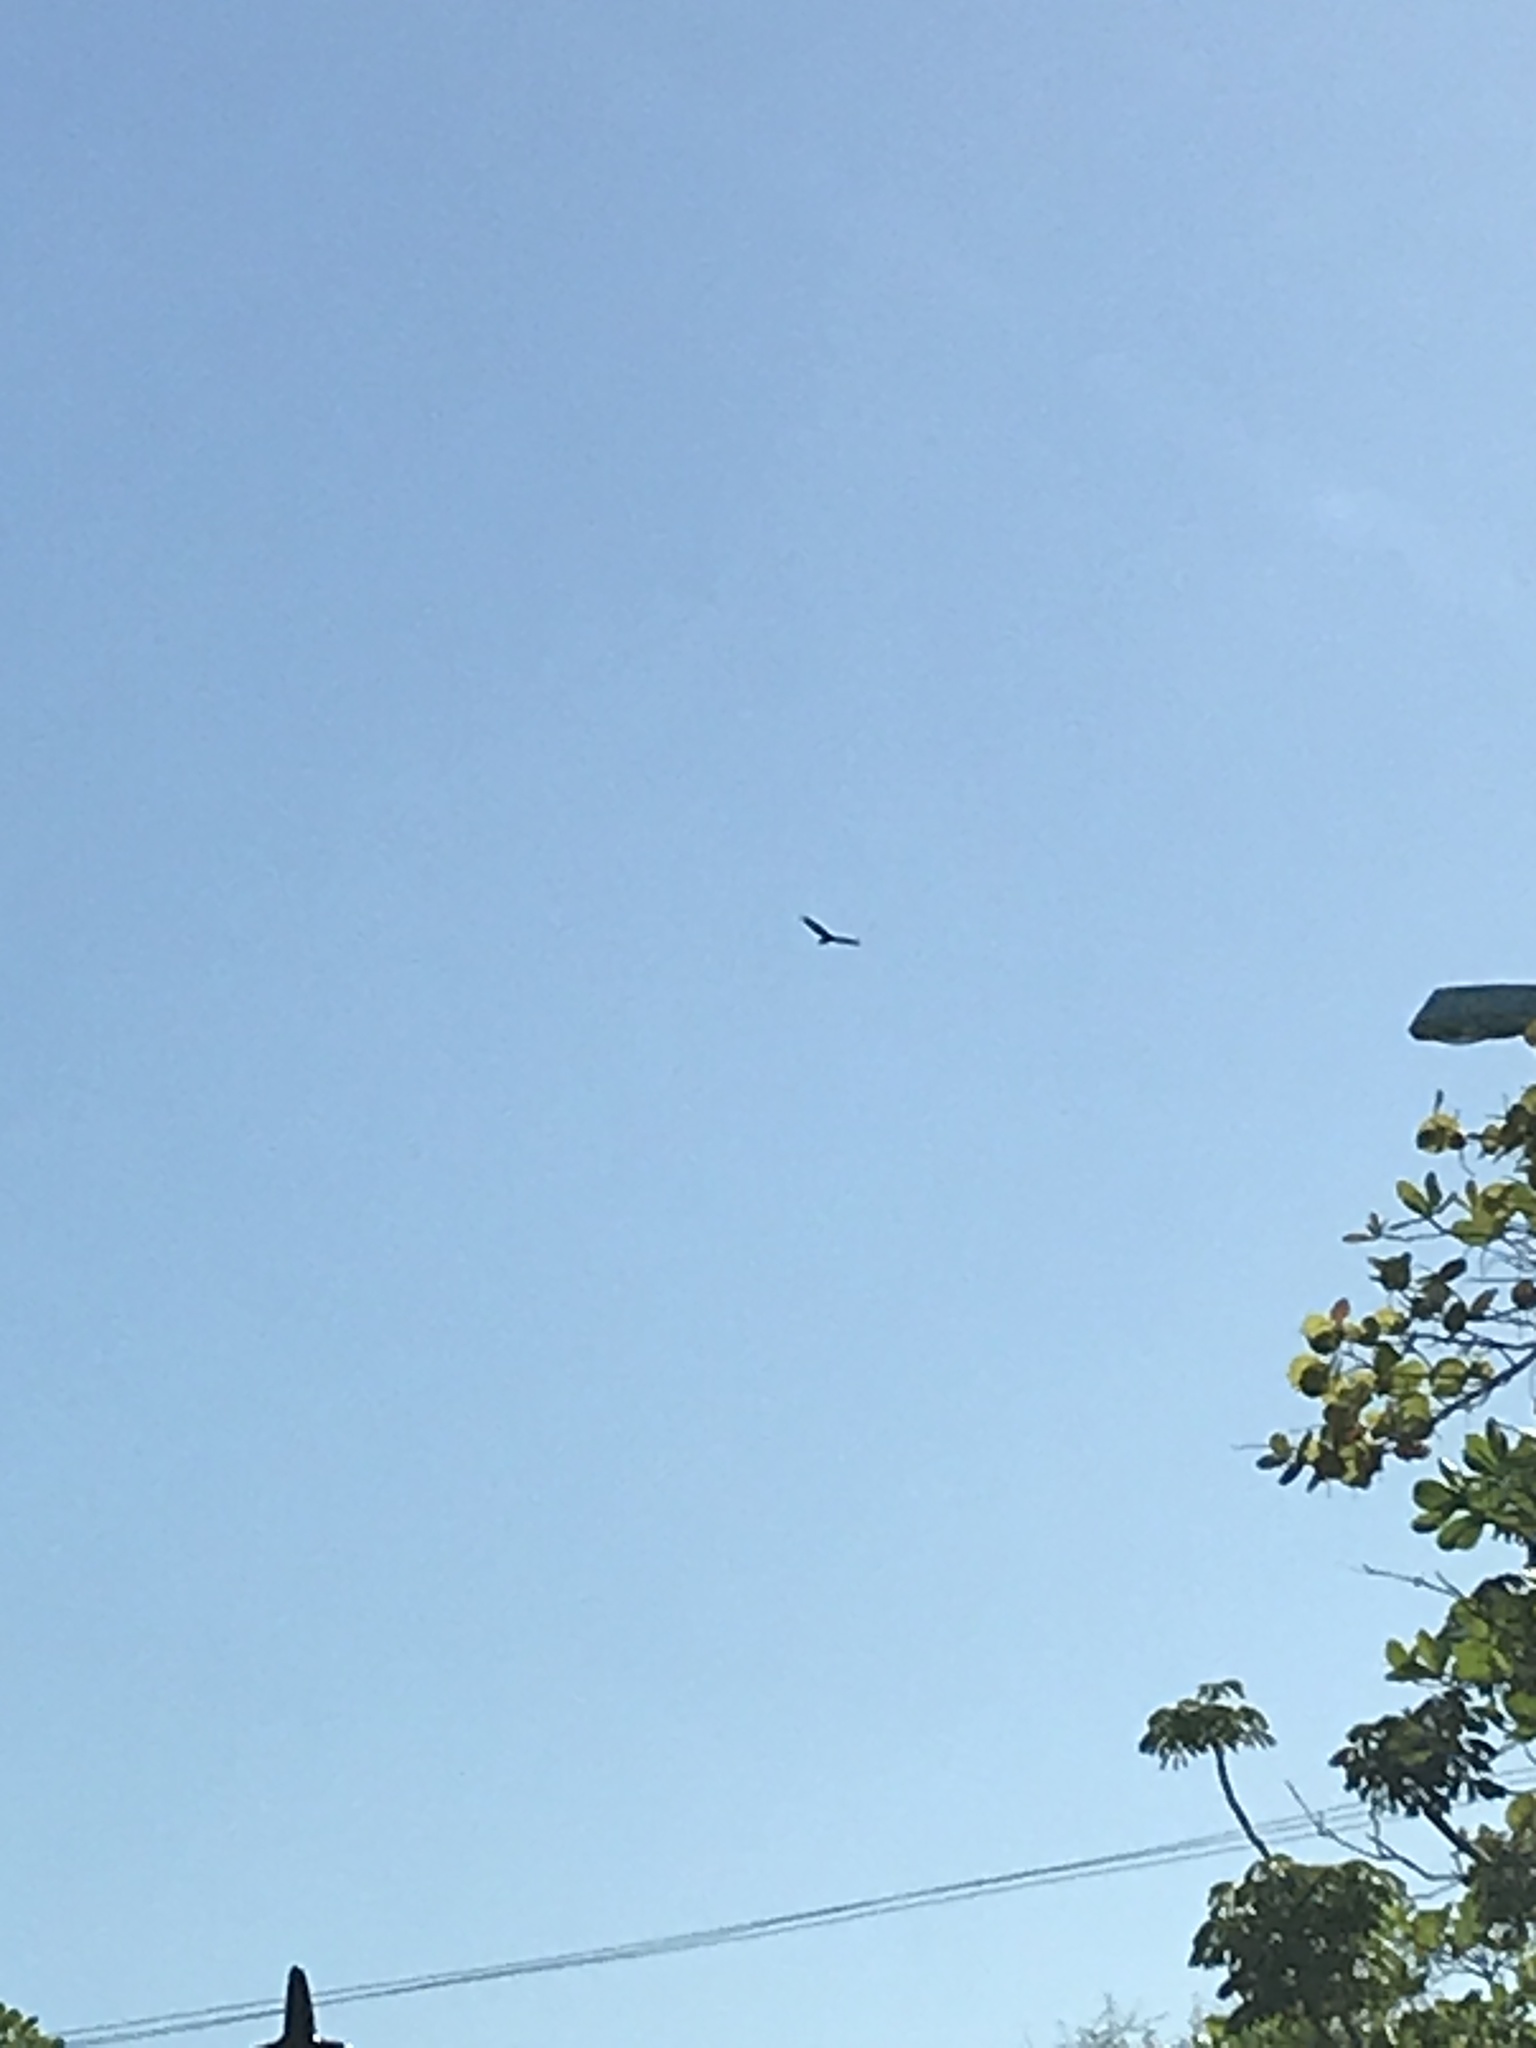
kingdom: Animalia
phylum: Chordata
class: Aves
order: Accipitriformes
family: Cathartidae
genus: Cathartes
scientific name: Cathartes aura
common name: Turkey vulture
